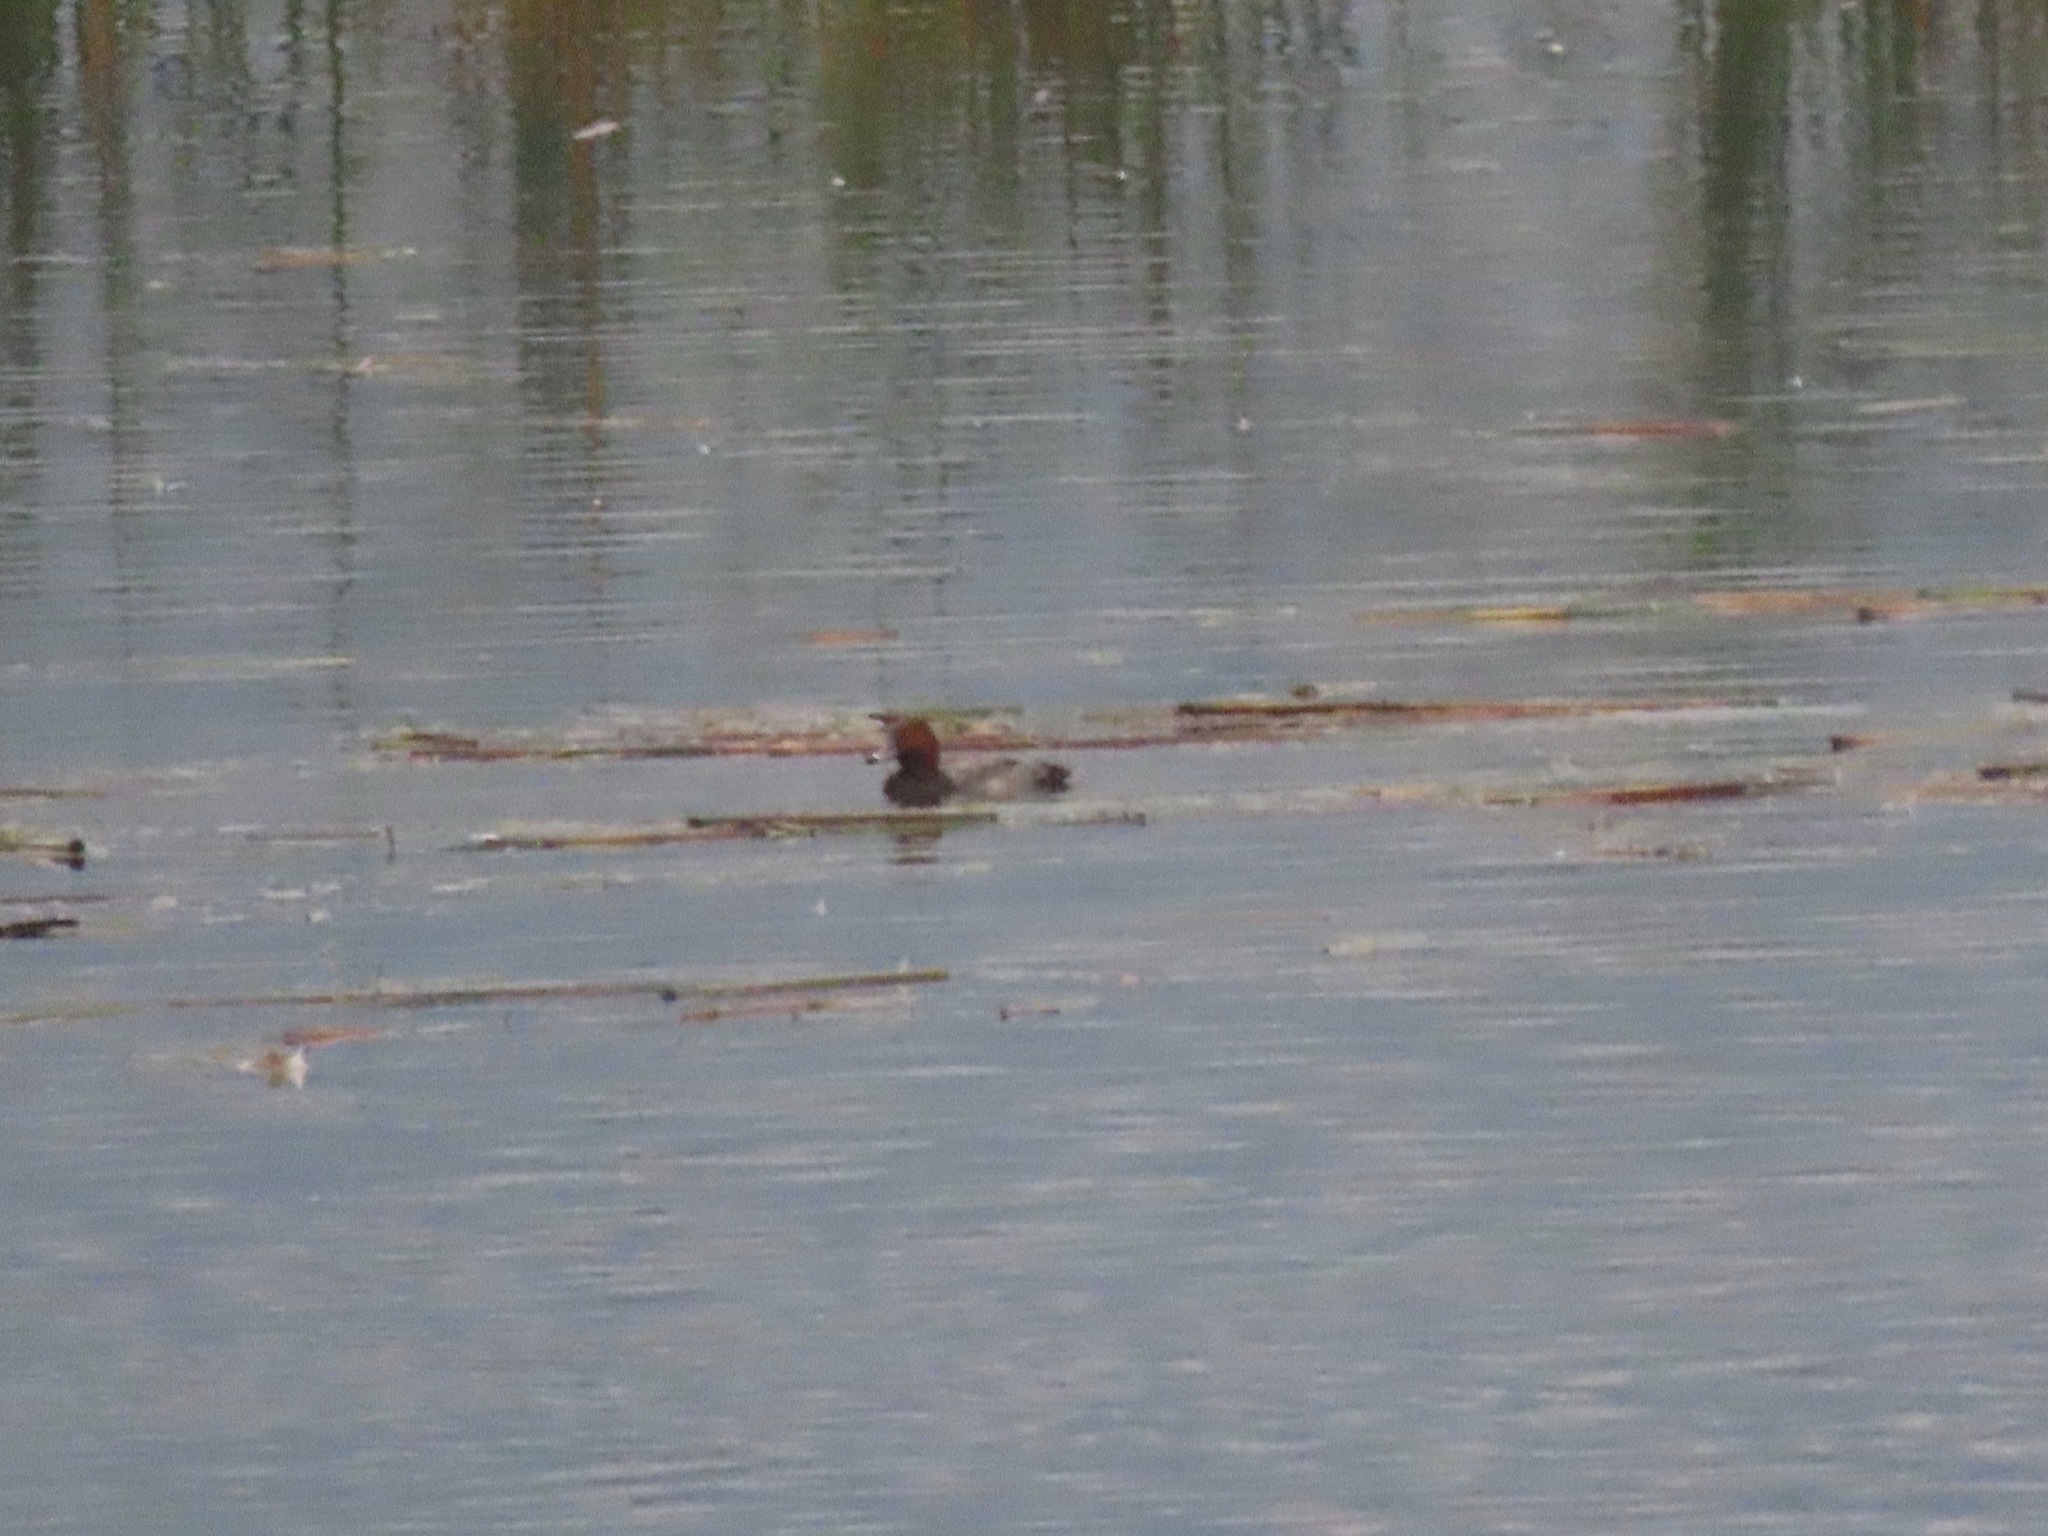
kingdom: Animalia
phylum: Chordata
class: Aves
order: Anseriformes
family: Anatidae
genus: Aythya
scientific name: Aythya americana
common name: Redhead
